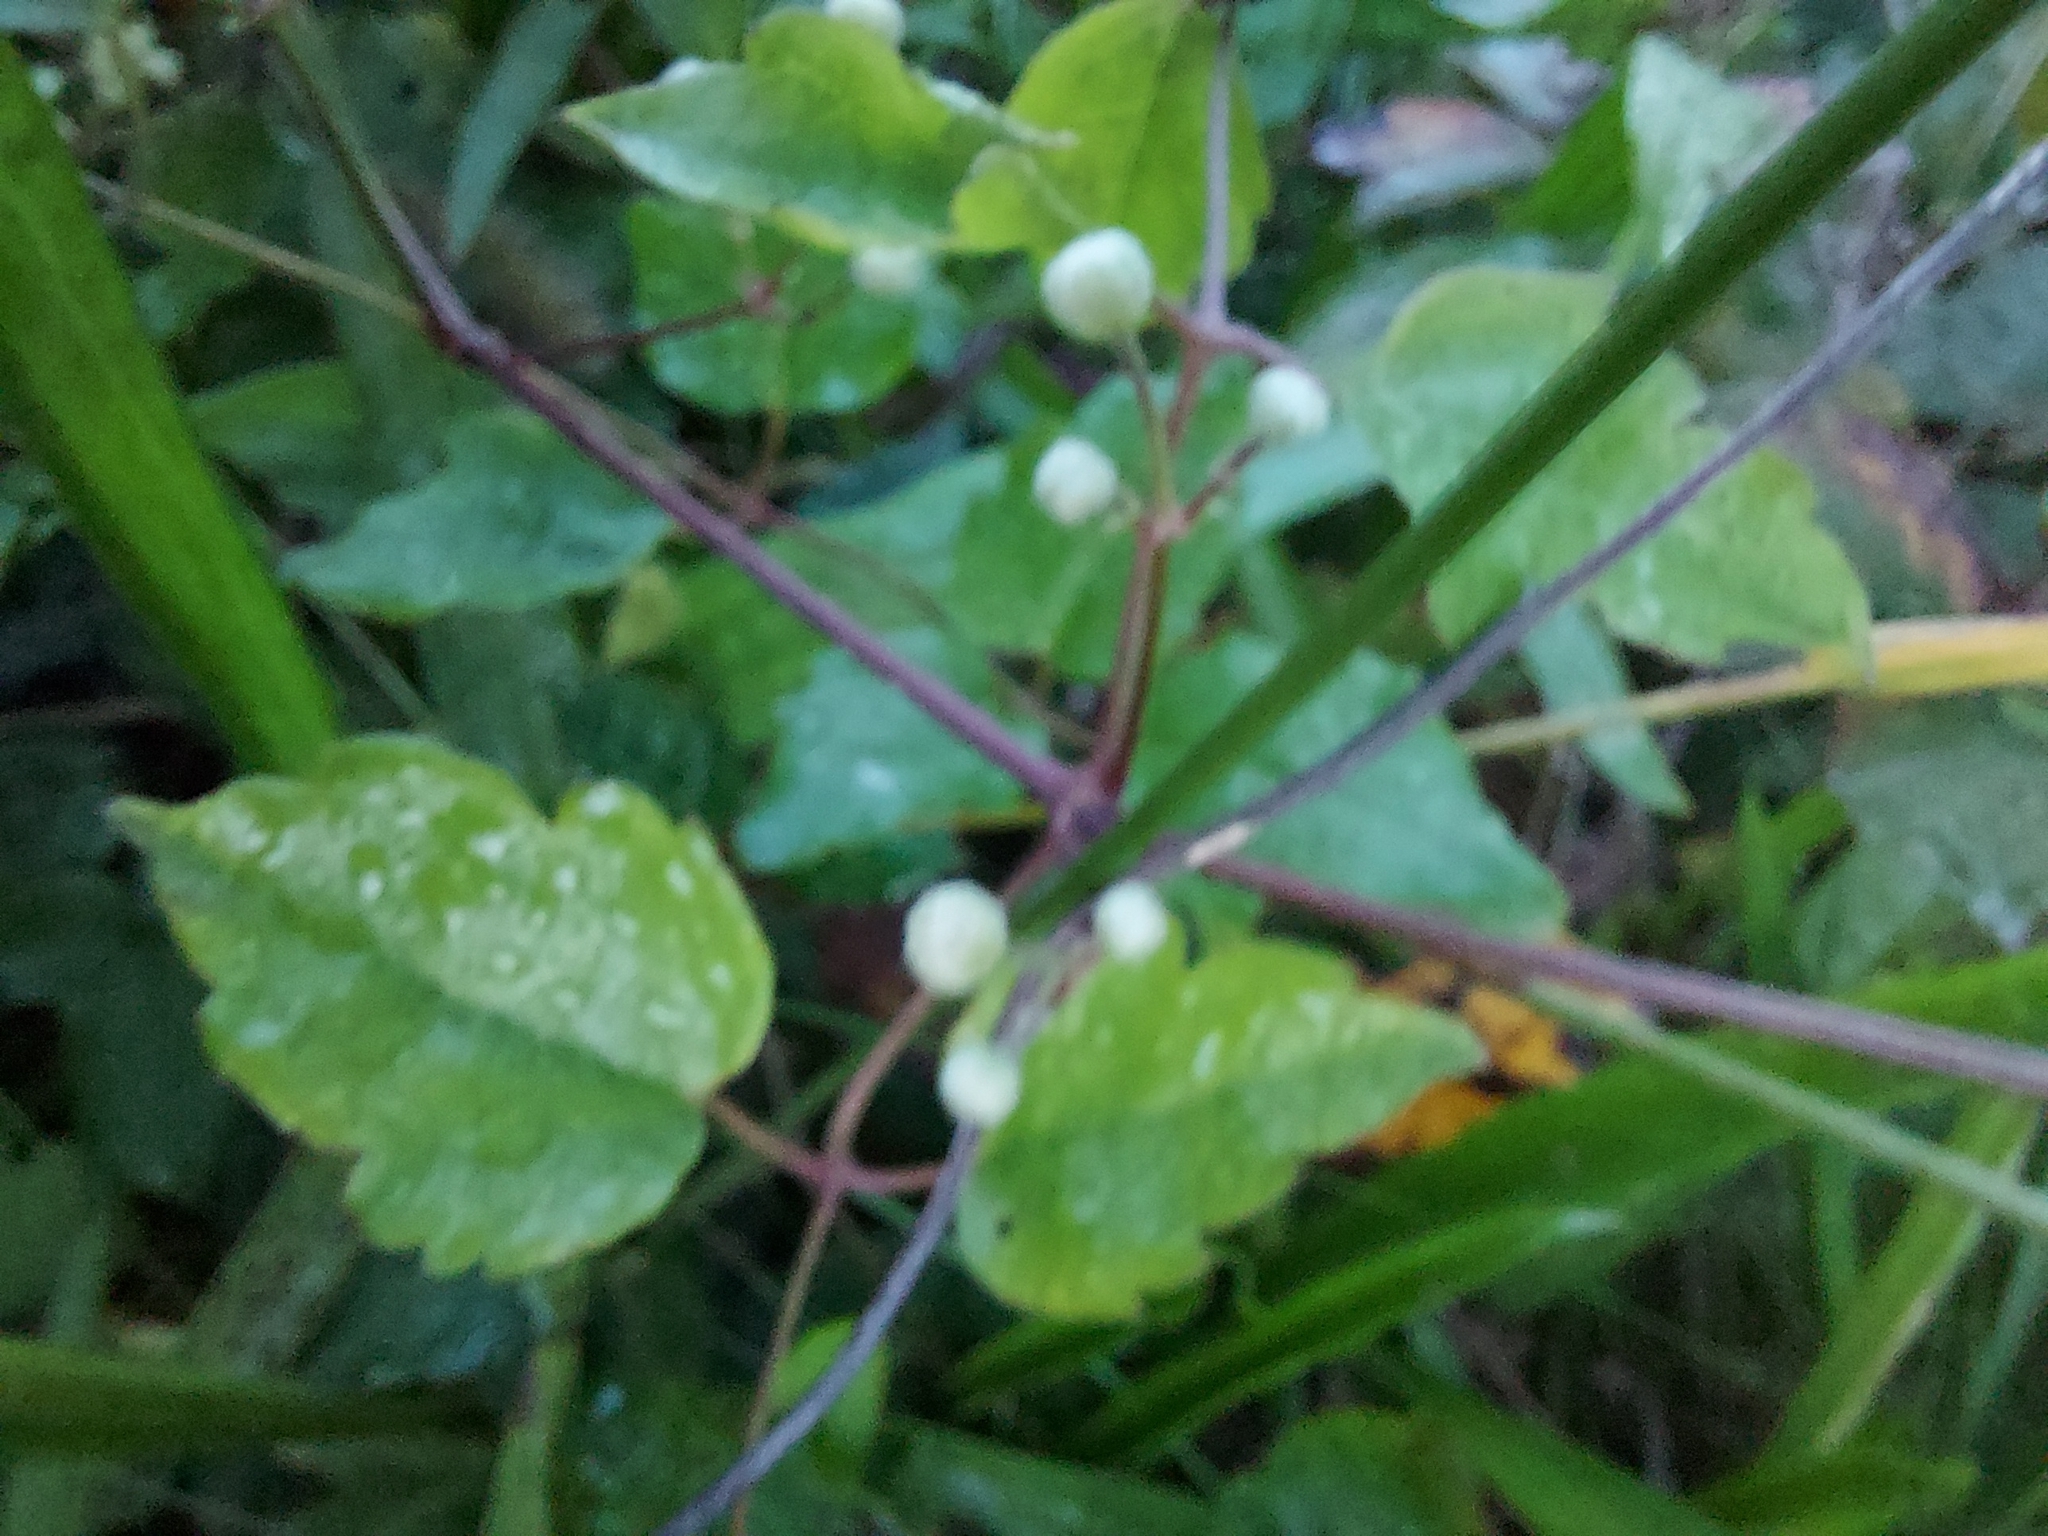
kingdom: Plantae
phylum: Tracheophyta
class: Magnoliopsida
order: Ranunculales
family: Ranunculaceae
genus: Clematis
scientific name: Clematis vitalba
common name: Evergreen clematis
